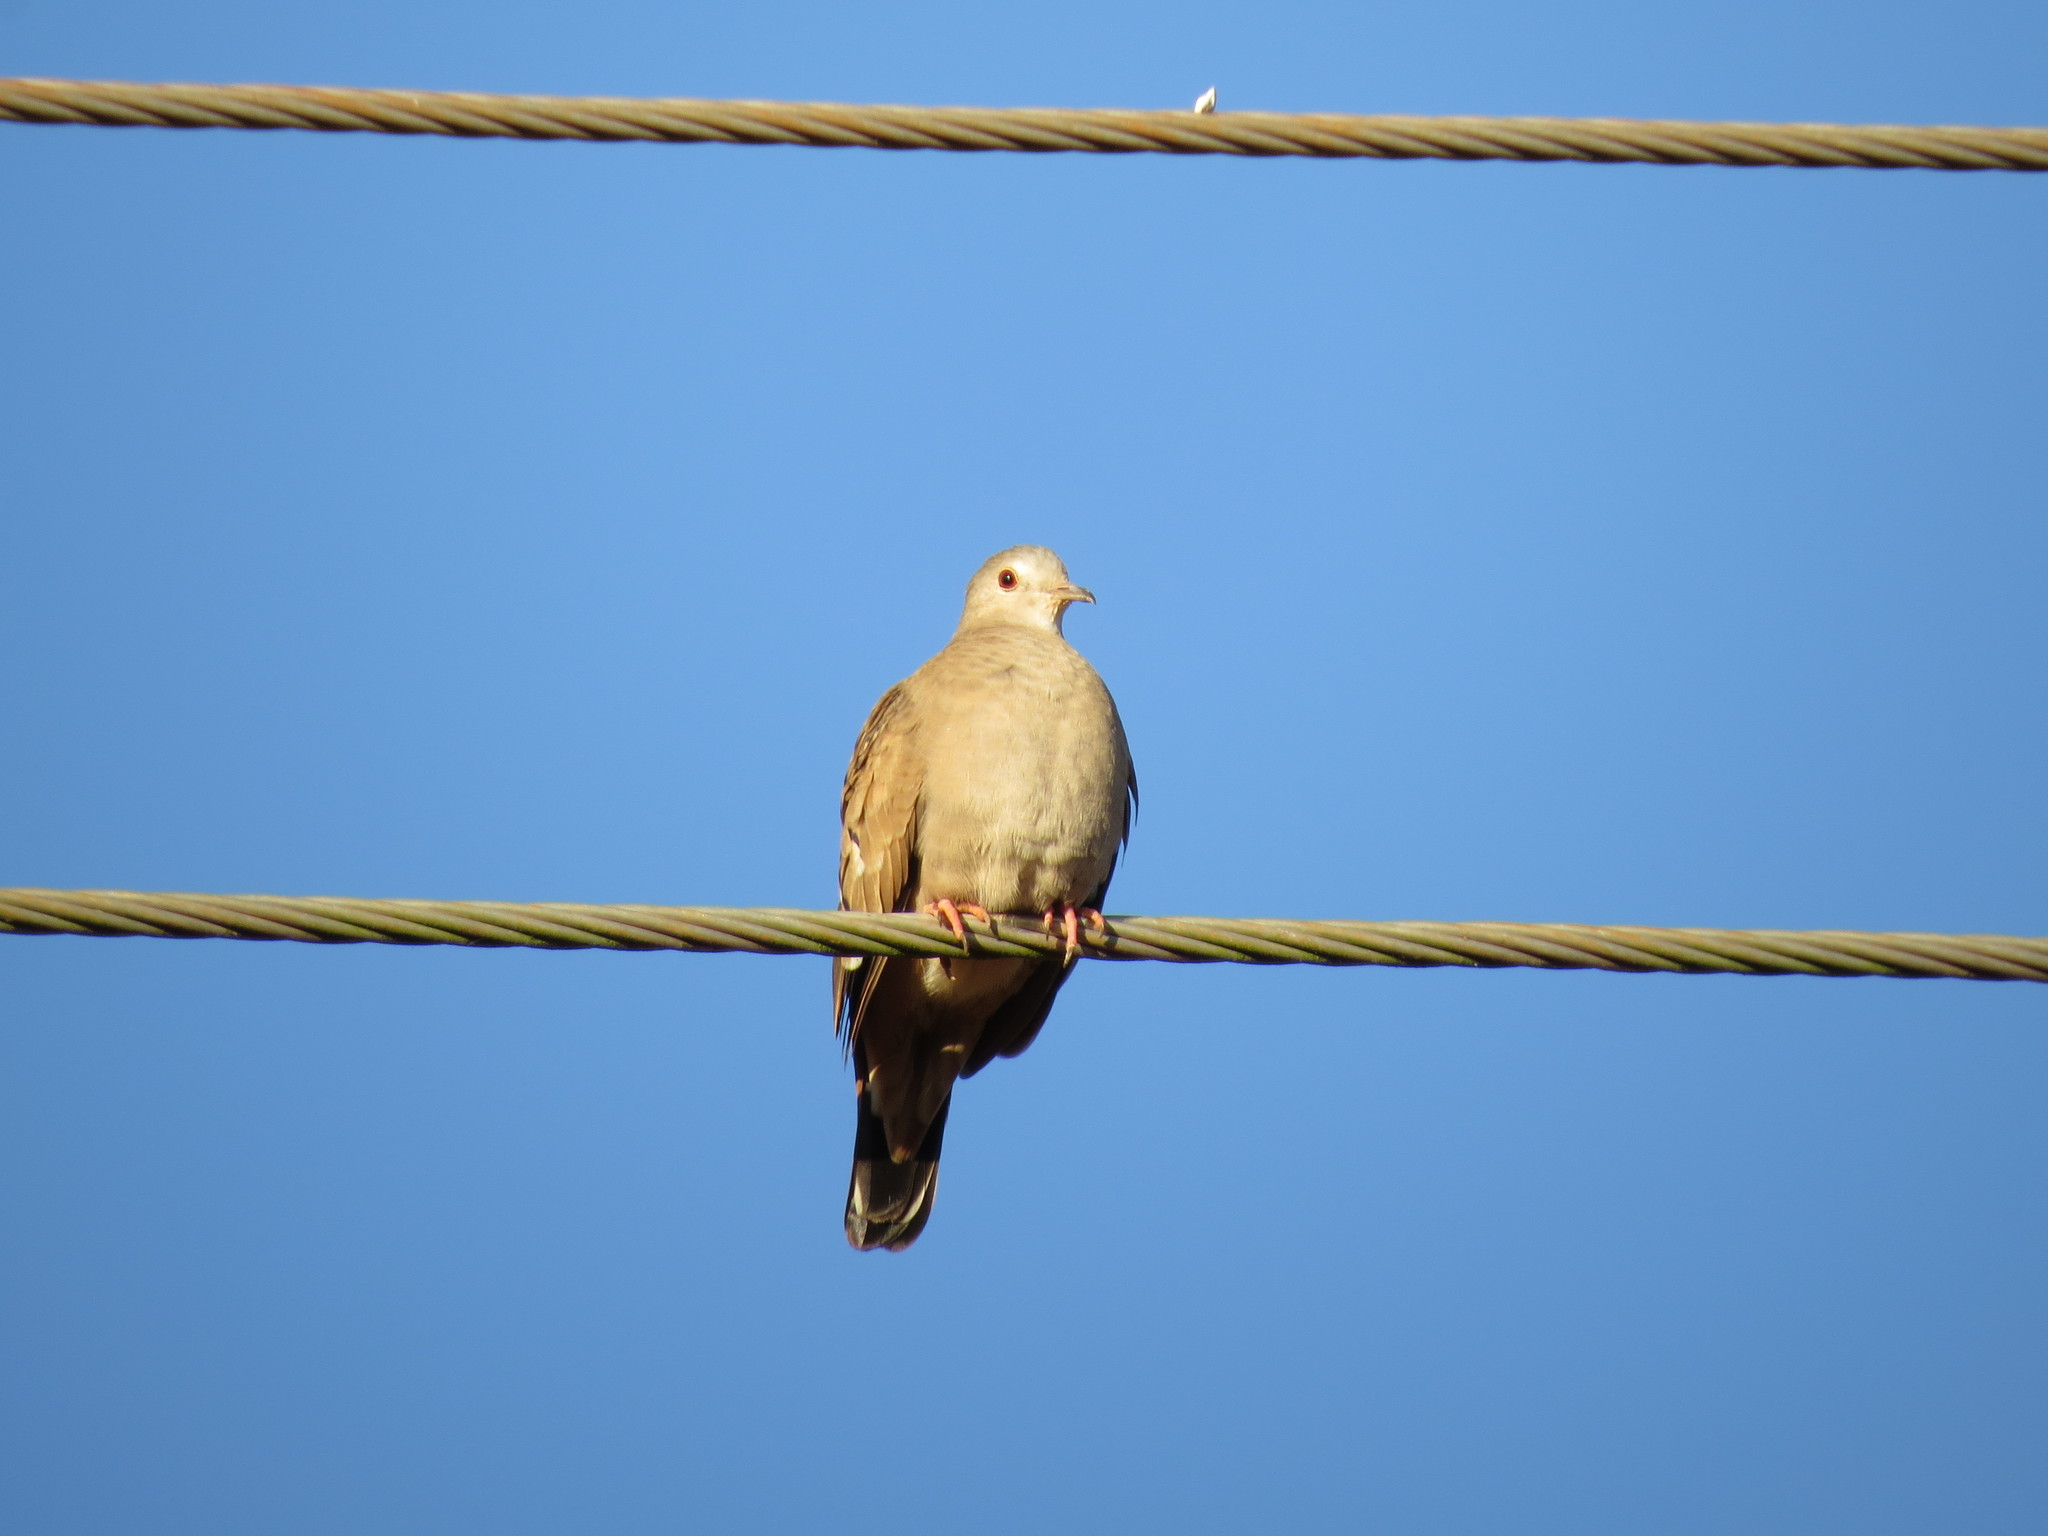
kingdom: Animalia
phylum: Chordata
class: Aves
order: Columbiformes
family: Columbidae
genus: Columbina
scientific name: Columbina talpacoti
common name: Ruddy ground dove
